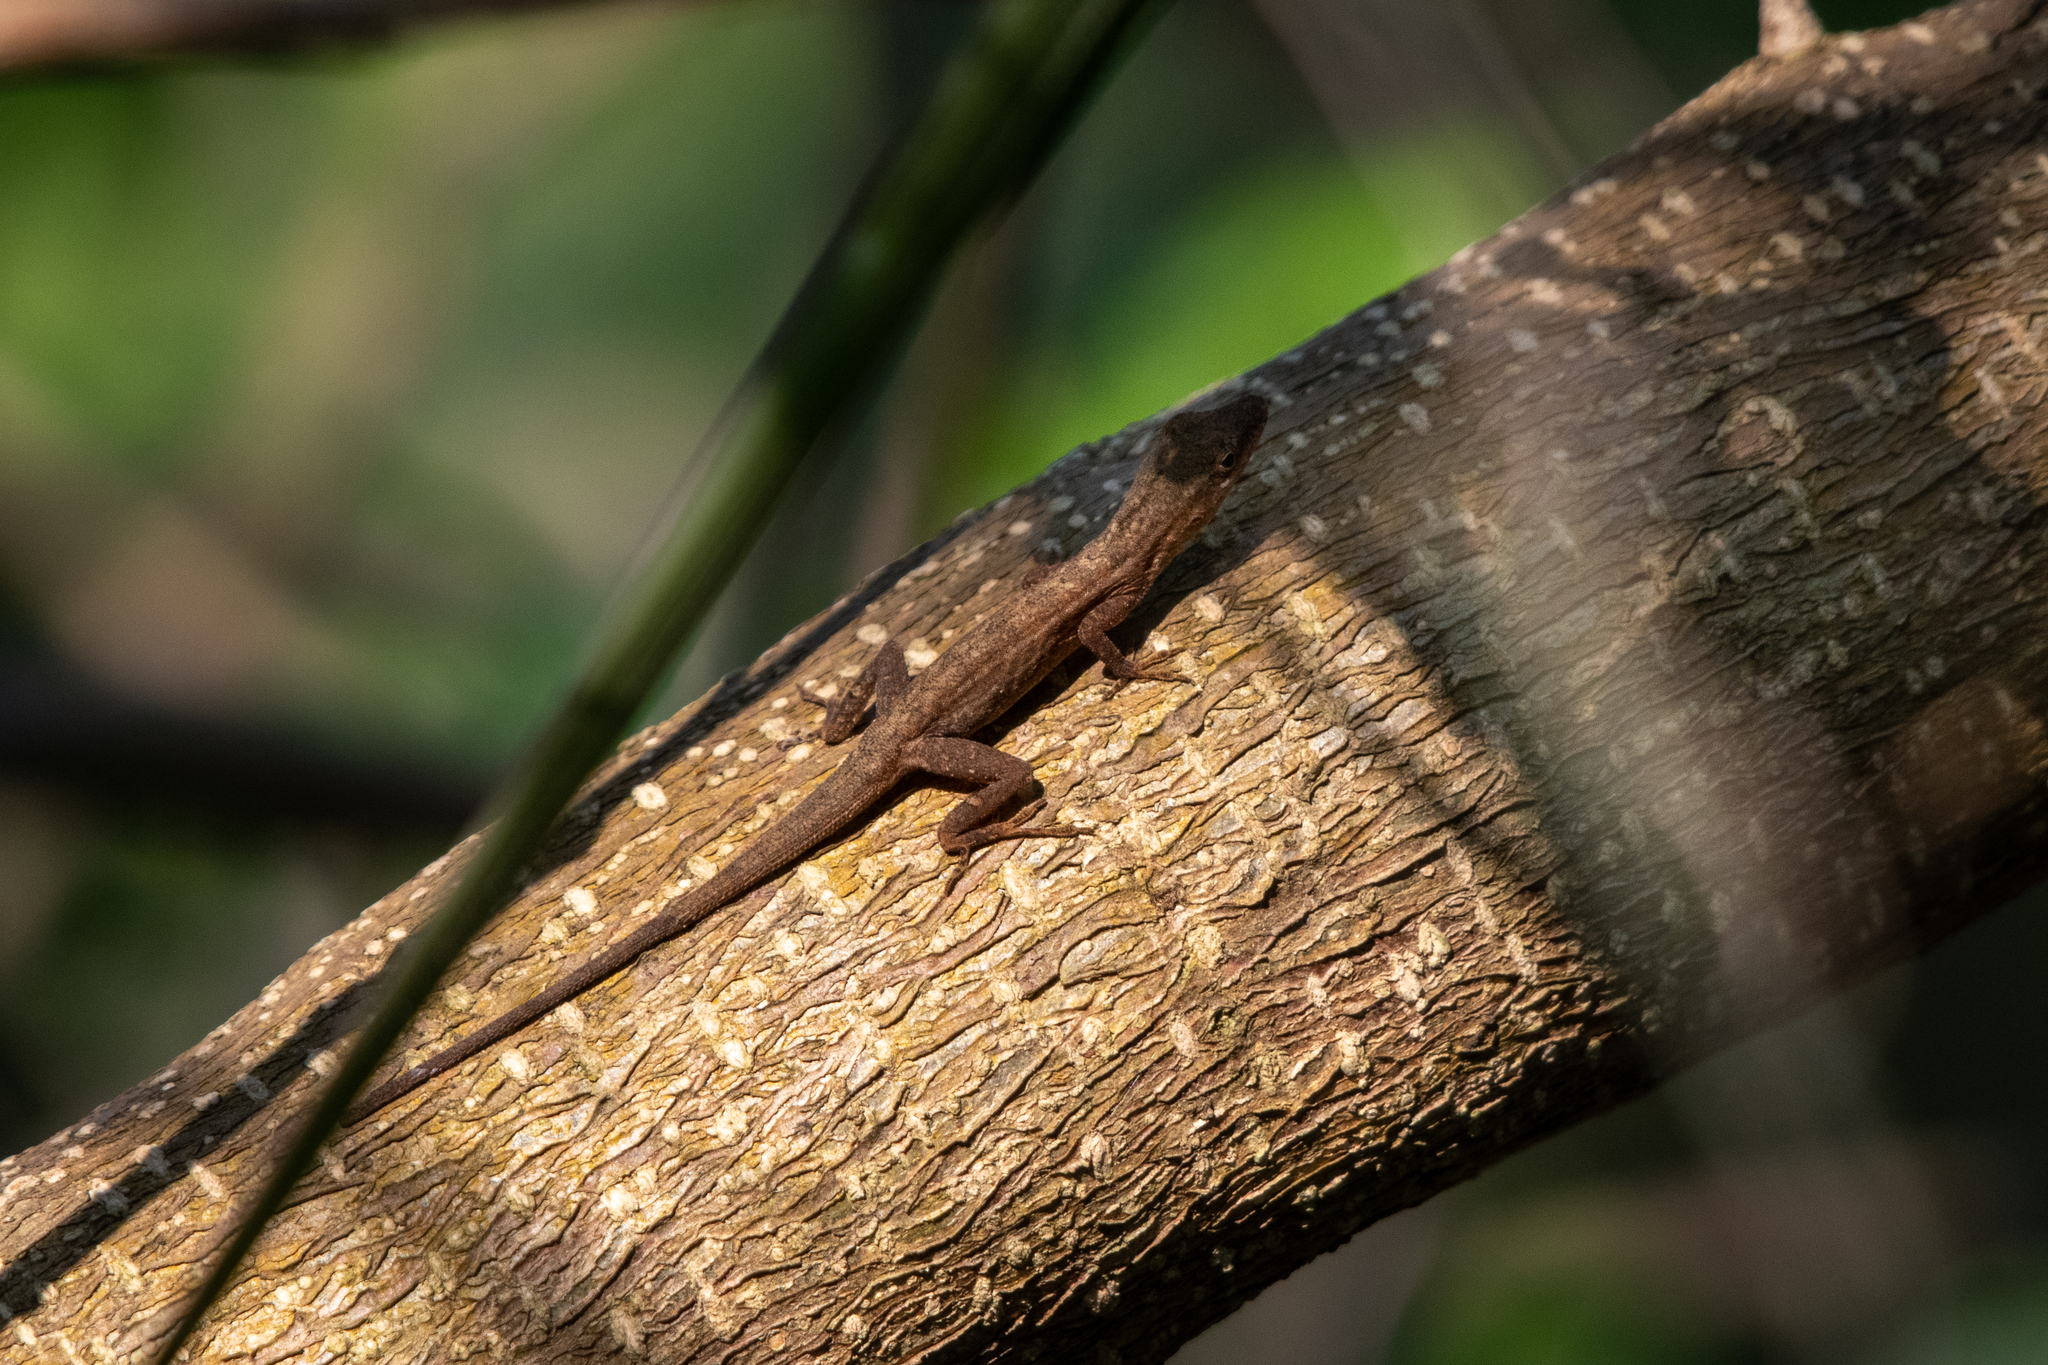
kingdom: Animalia
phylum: Chordata
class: Squamata
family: Dactyloidae
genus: Anolis
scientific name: Anolis bicaorum
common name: Bay islands anole
